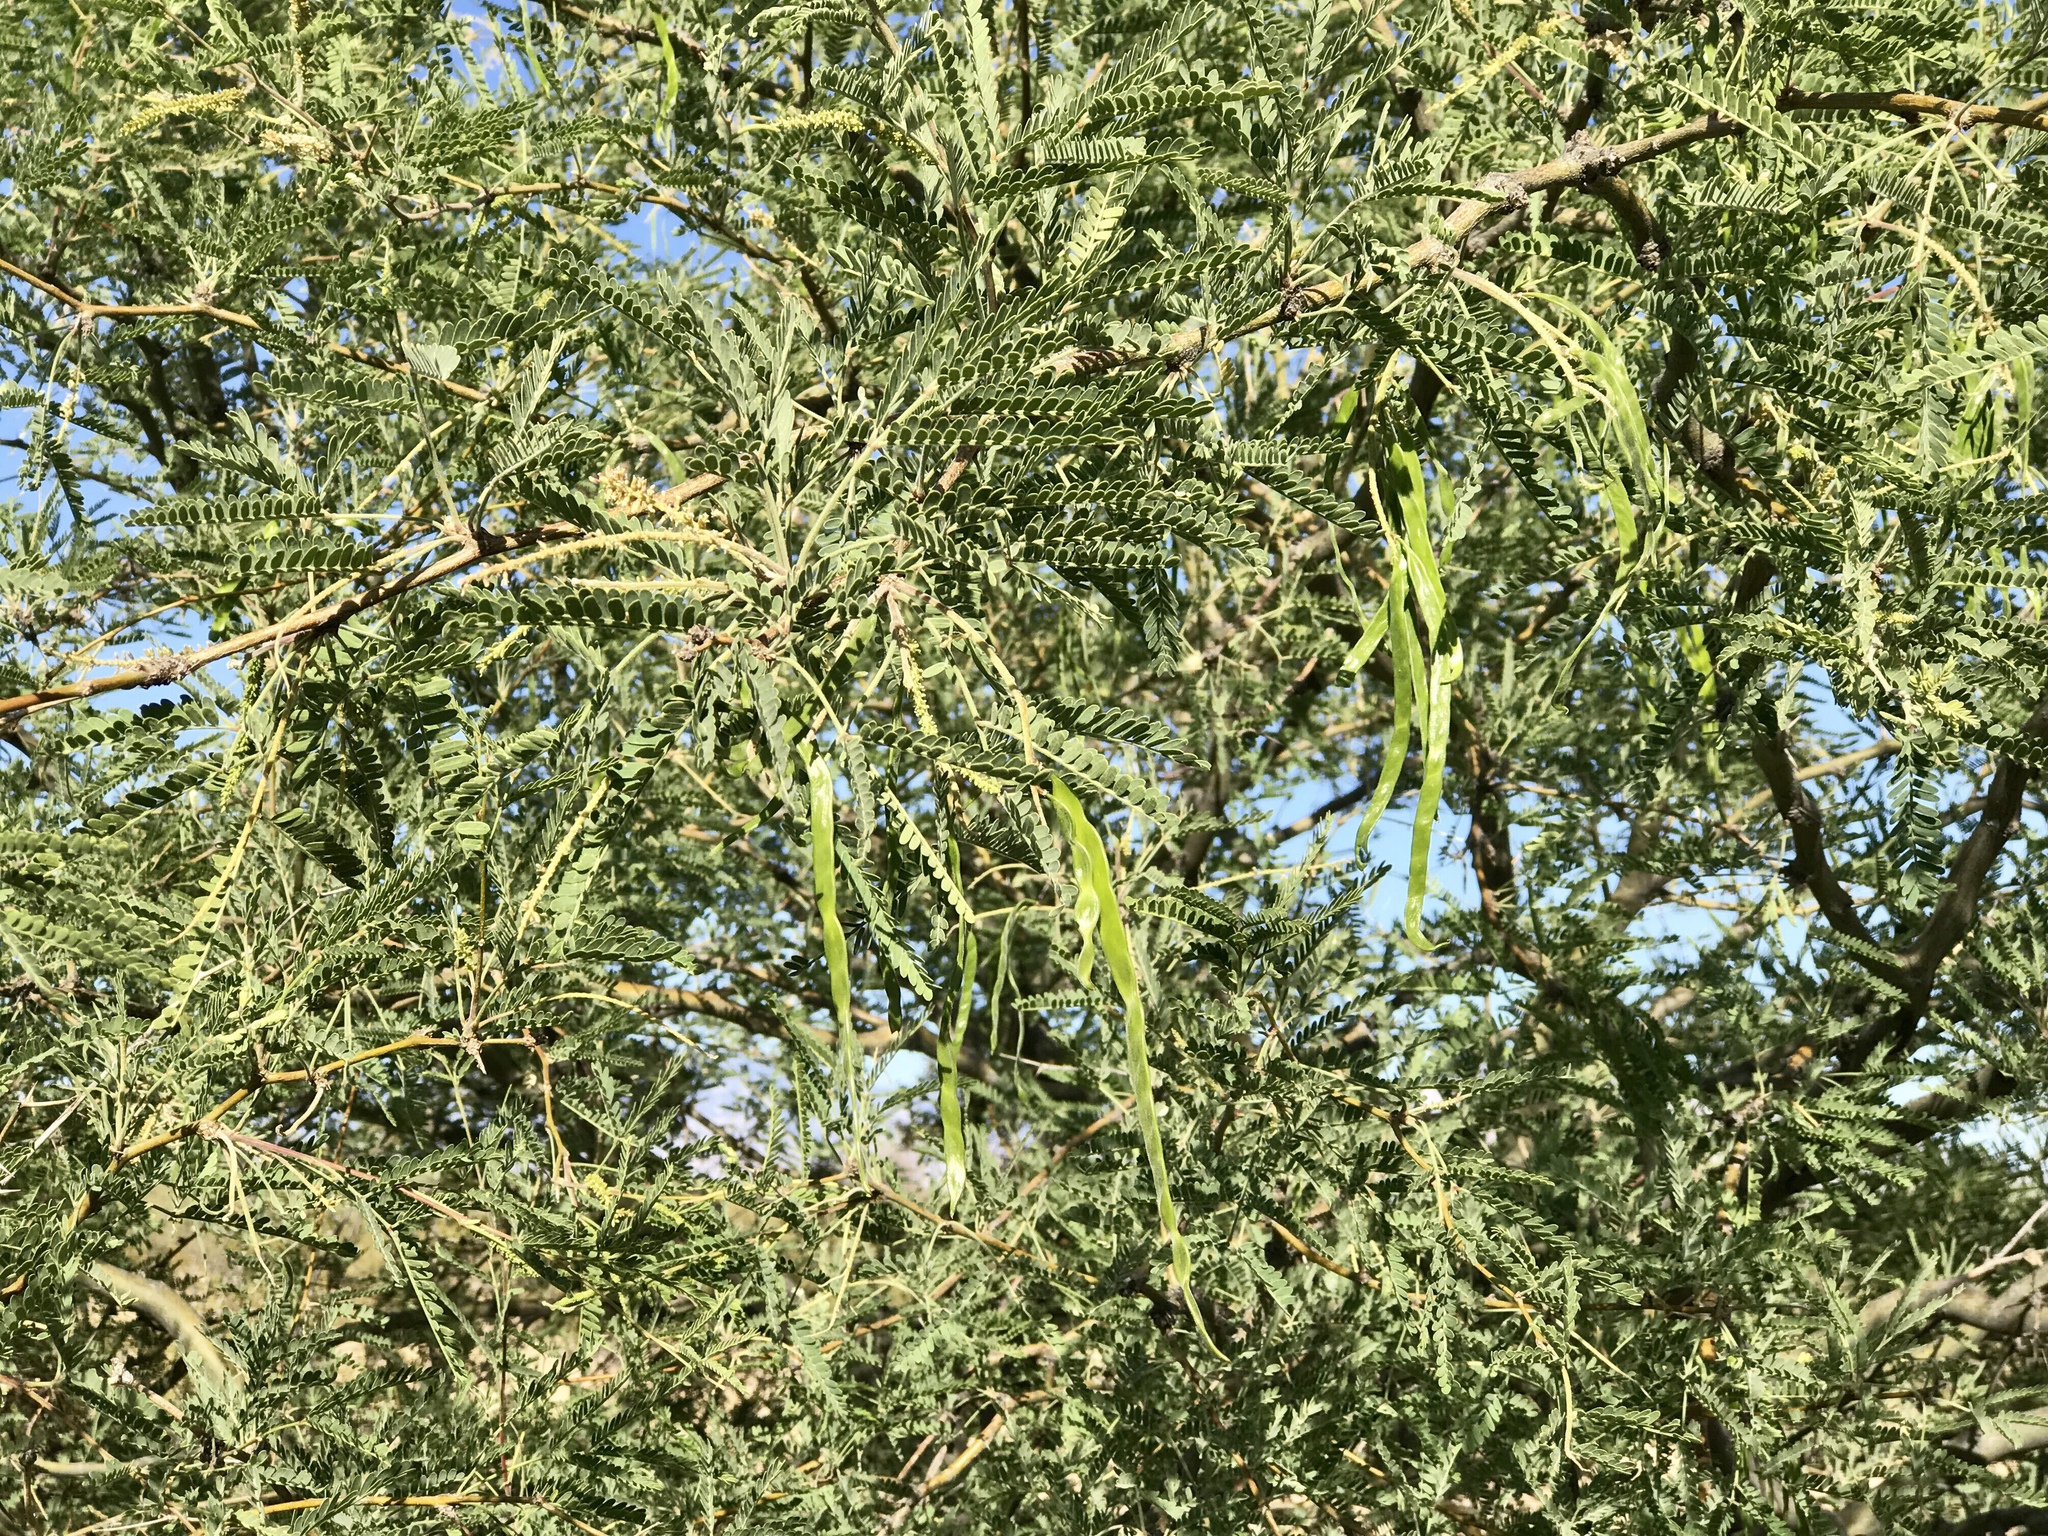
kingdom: Plantae
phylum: Tracheophyta
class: Magnoliopsida
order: Fabales
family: Fabaceae
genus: Prosopis
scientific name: Prosopis velutina
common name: Velvet mesquite
